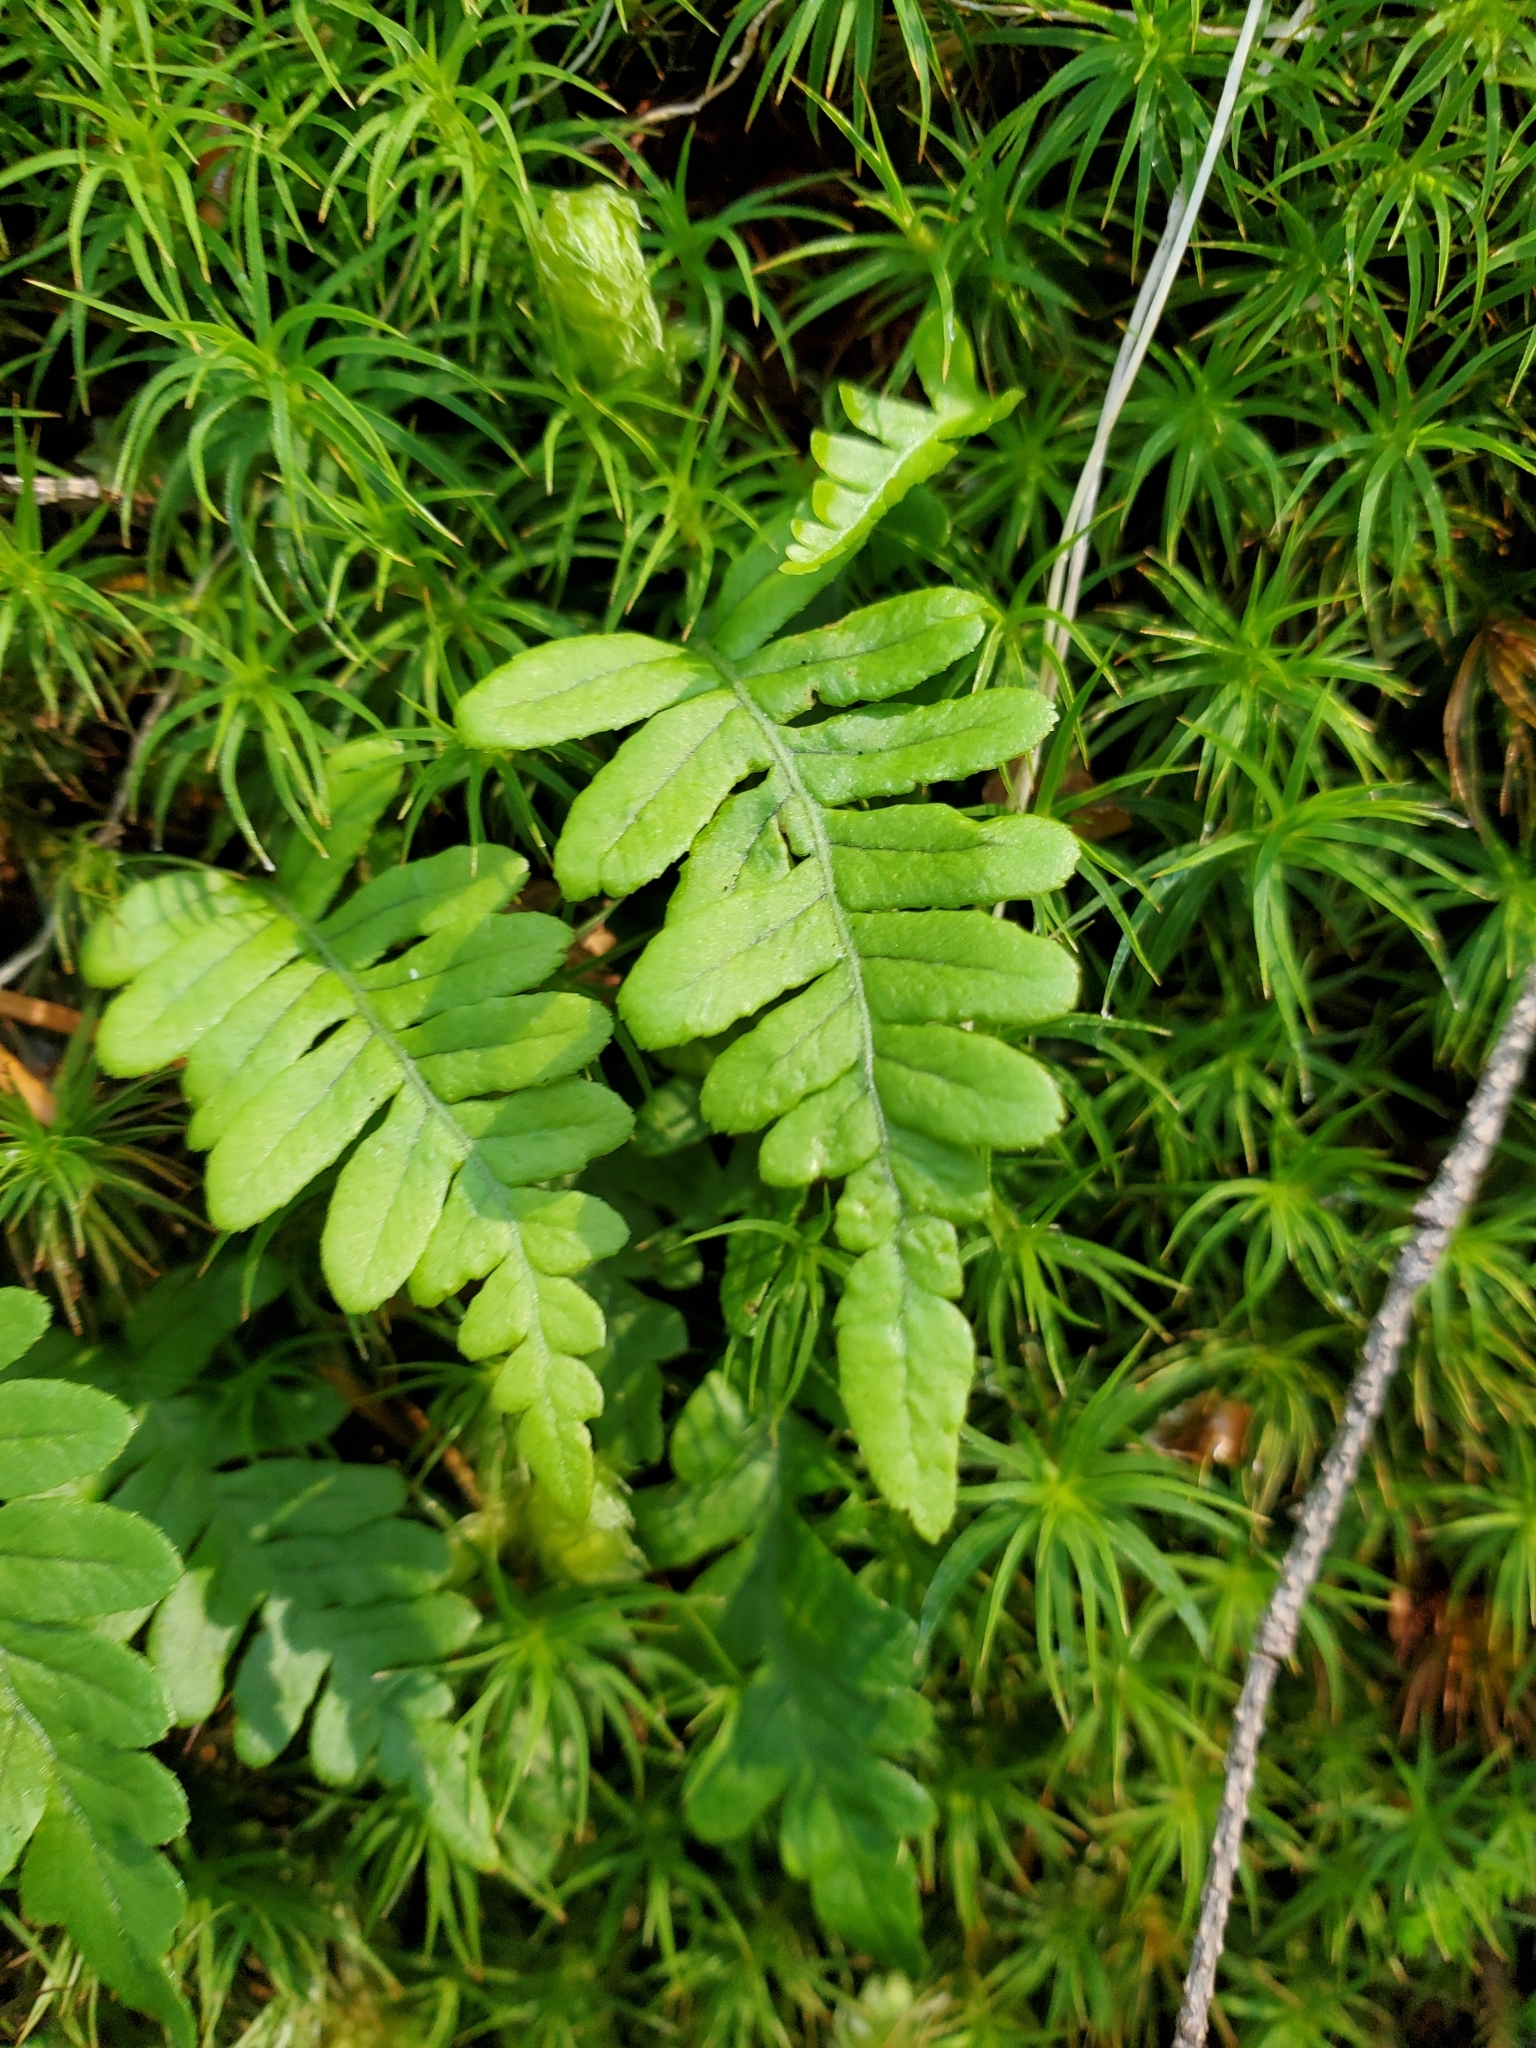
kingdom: Plantae
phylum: Tracheophyta
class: Polypodiopsida
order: Polypodiales
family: Polypodiaceae
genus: Polypodium
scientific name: Polypodium glycyrrhiza
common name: Licorice fern
